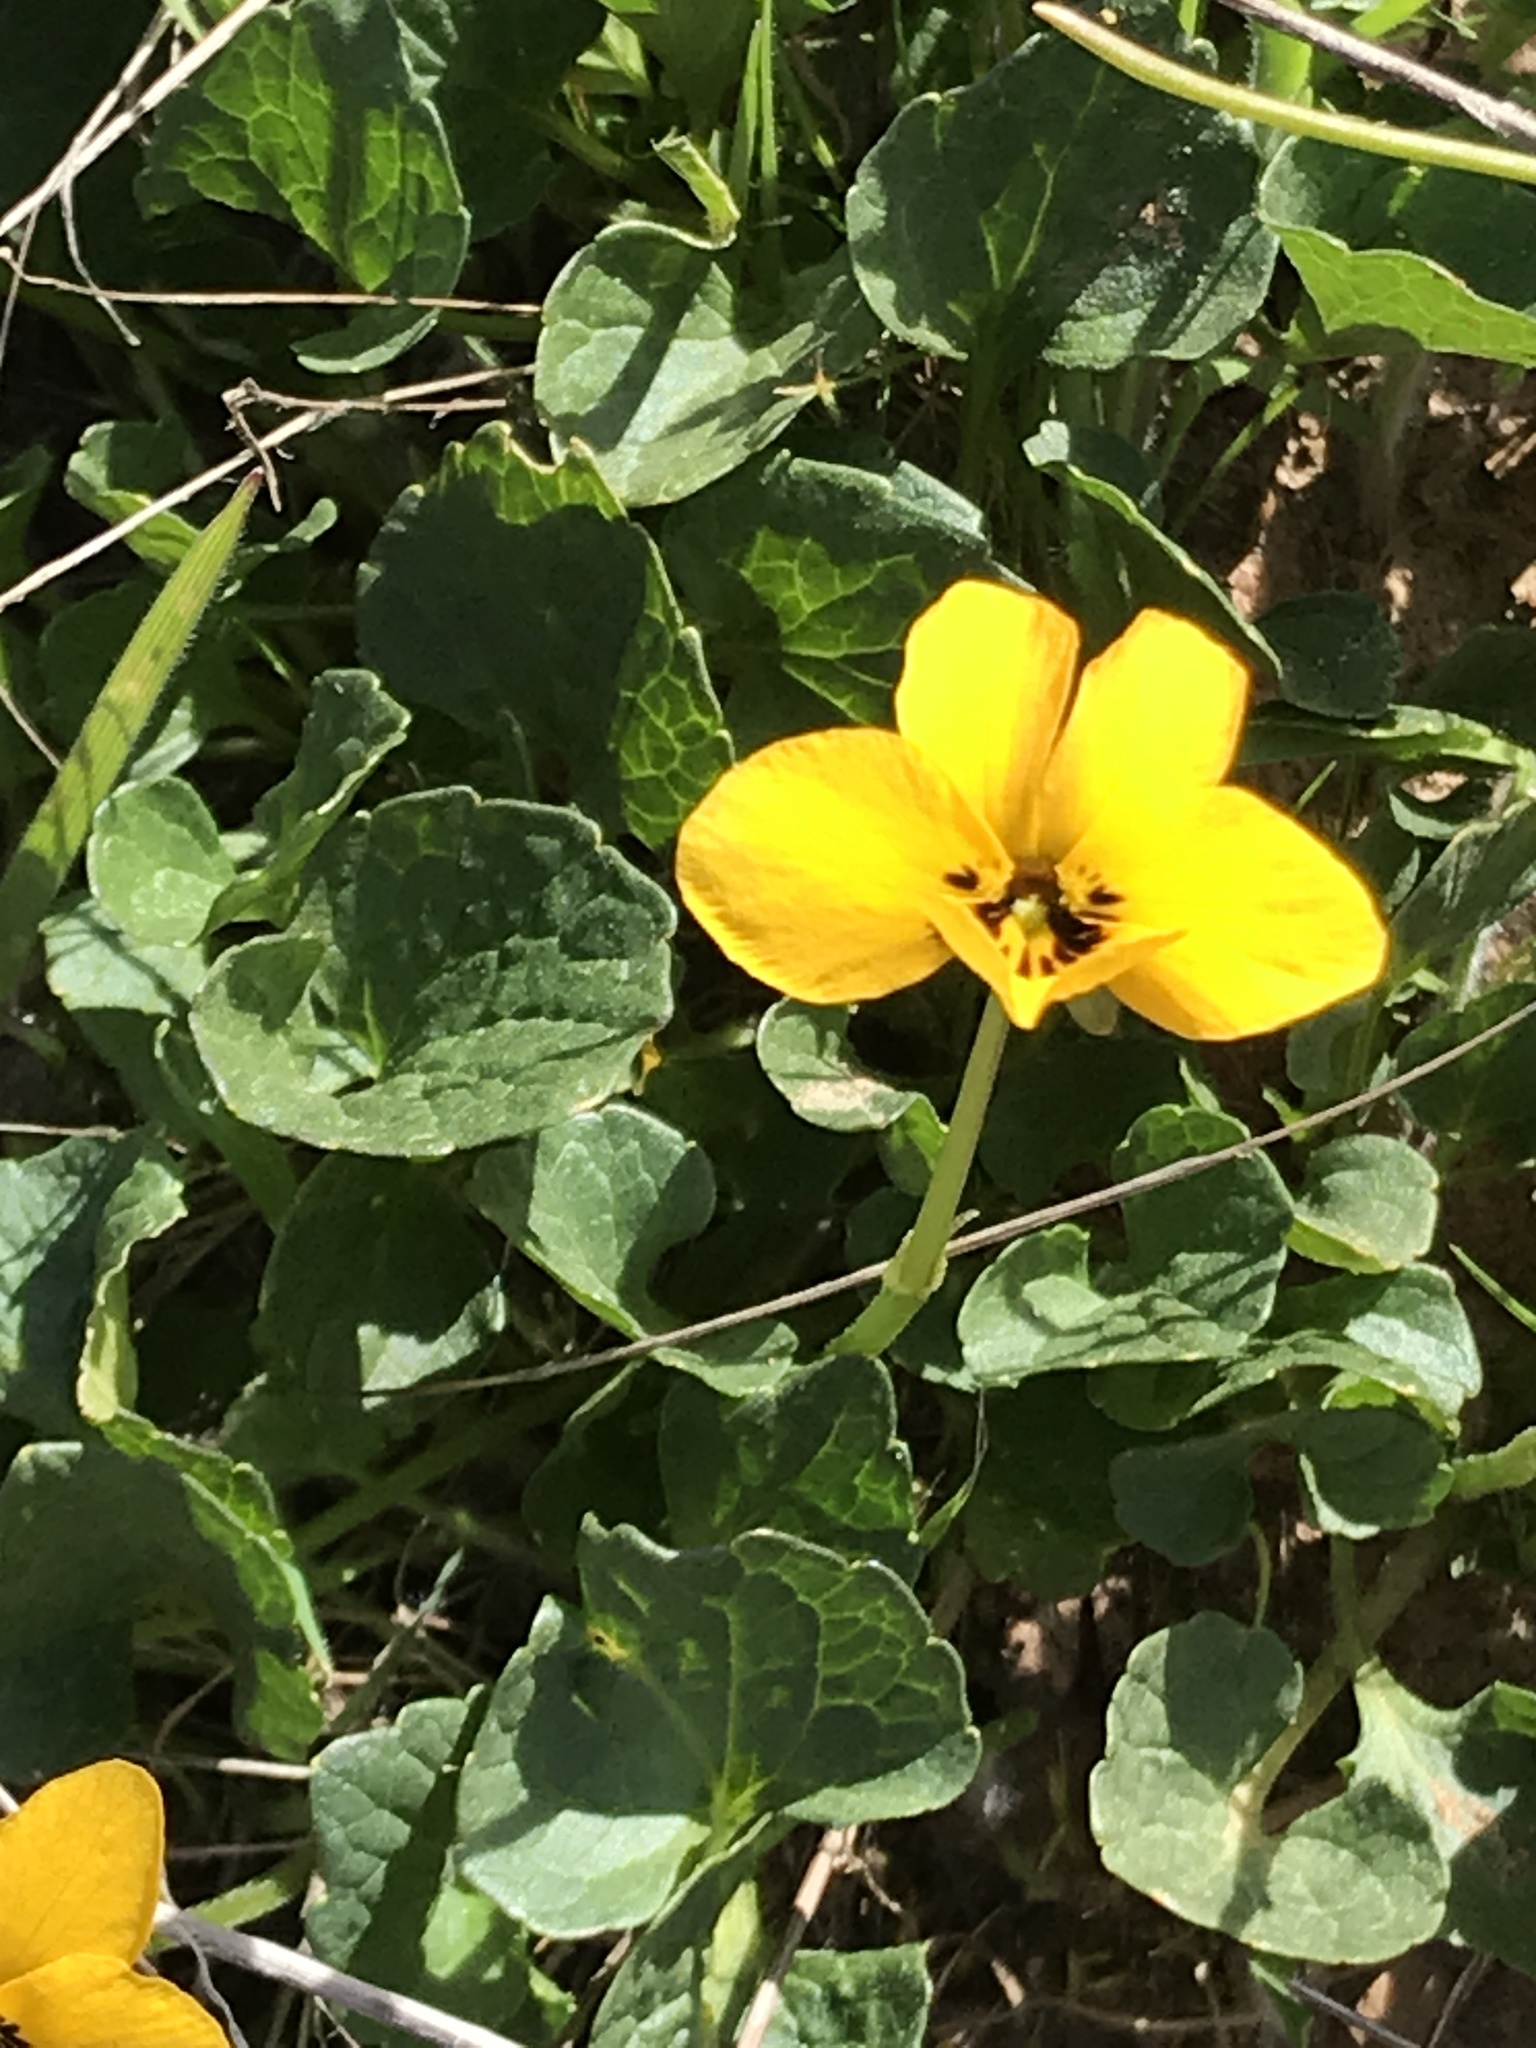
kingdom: Plantae
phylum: Tracheophyta
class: Magnoliopsida
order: Malpighiales
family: Violaceae
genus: Viola
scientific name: Viola pedunculata
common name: California golden violet
